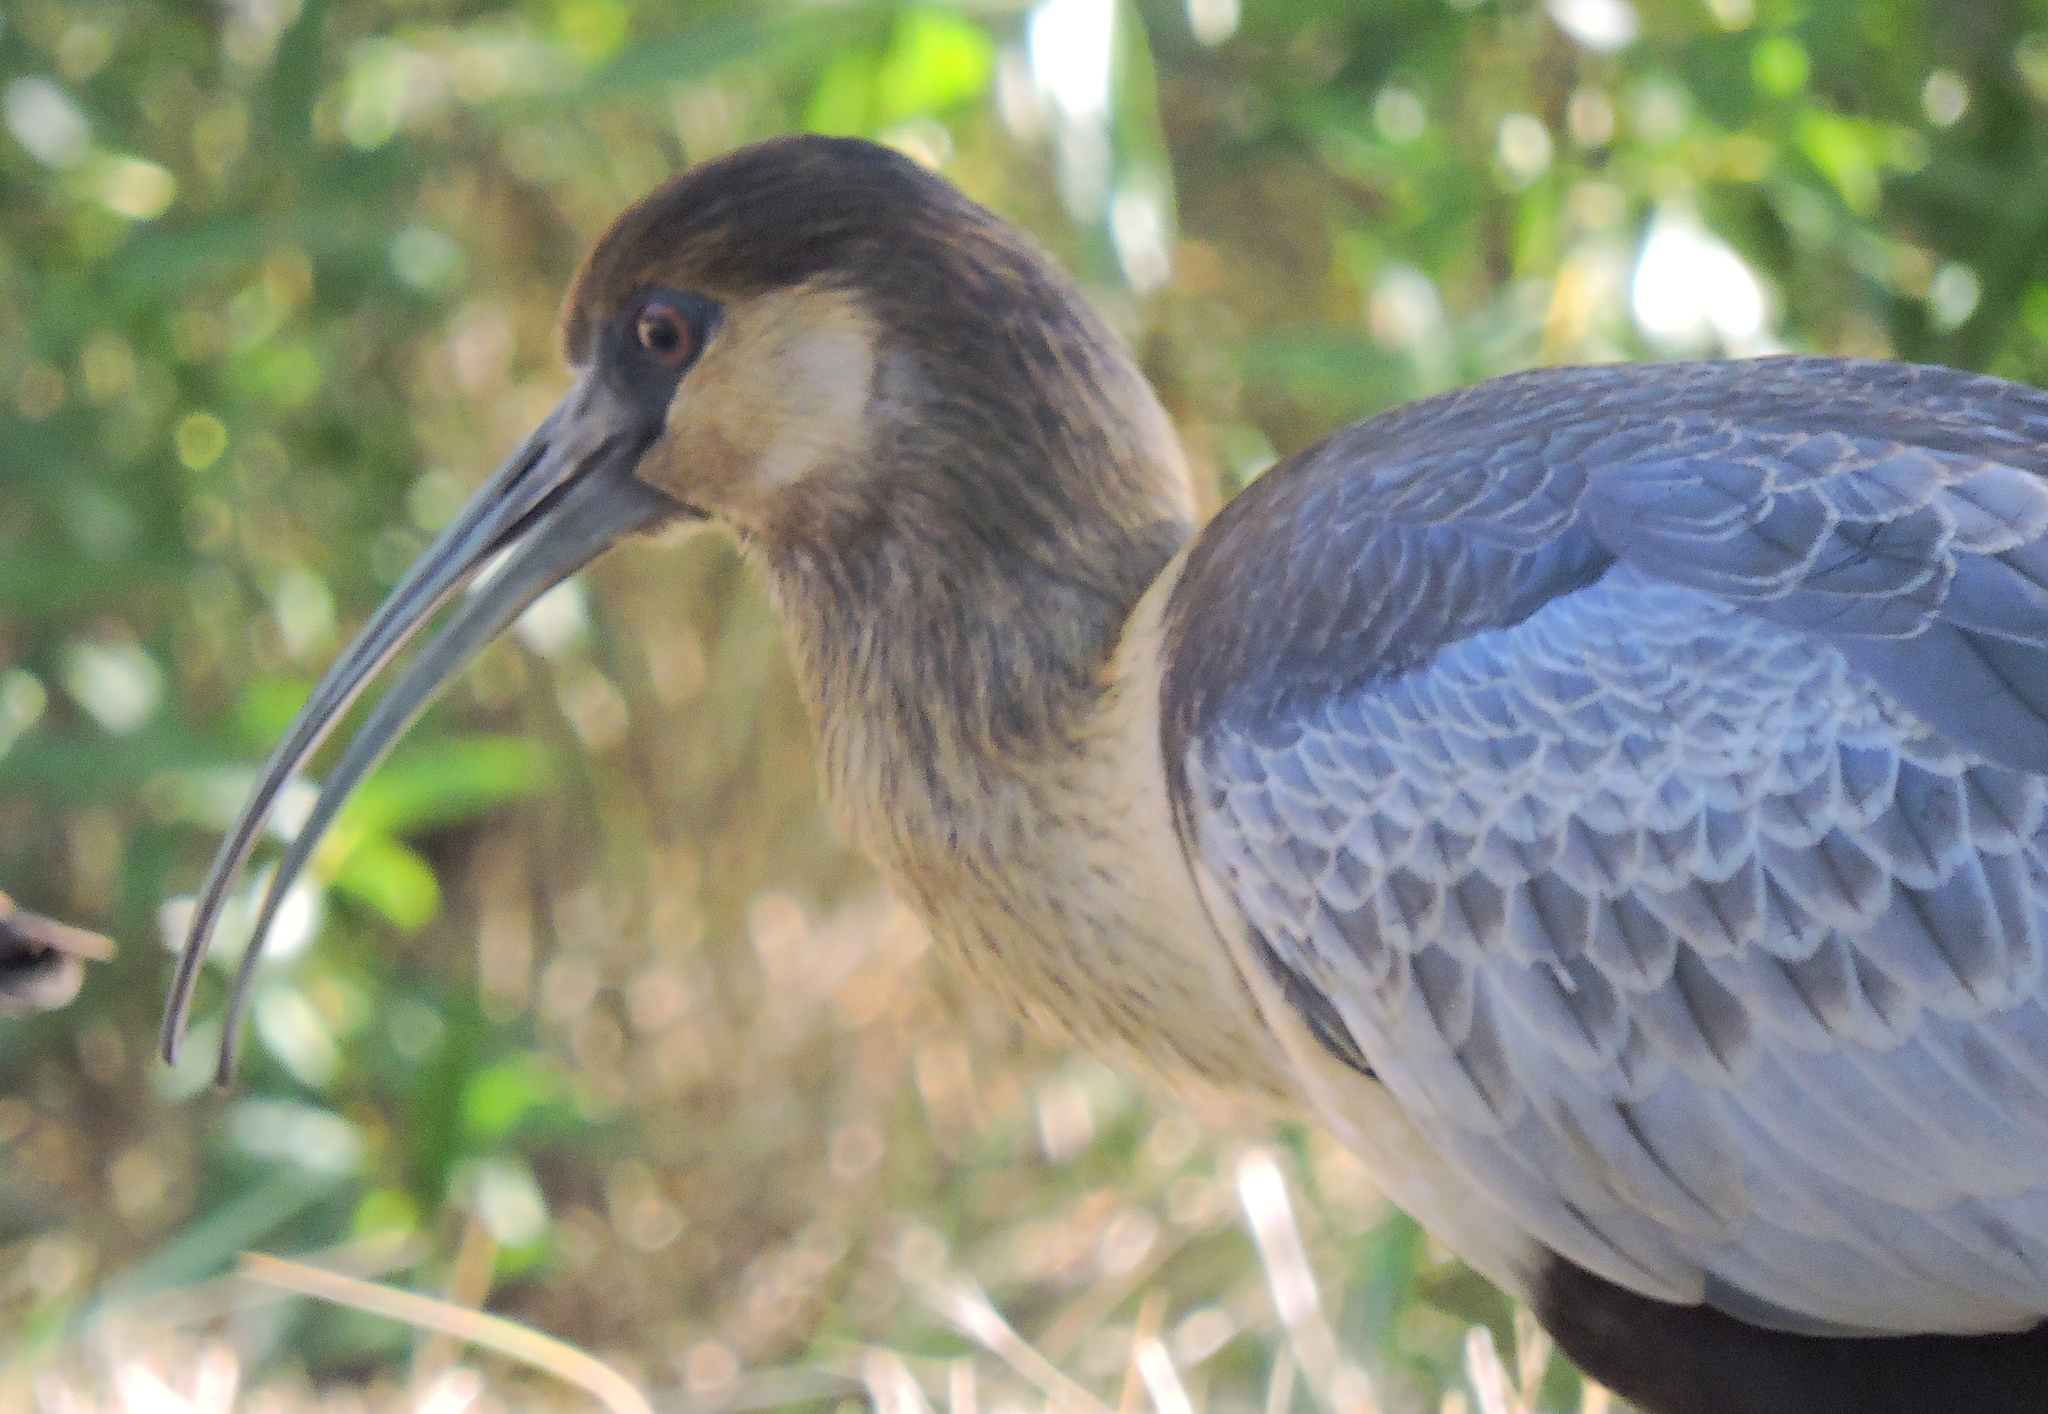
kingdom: Animalia
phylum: Chordata
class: Aves
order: Pelecaniformes
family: Threskiornithidae
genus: Theristicus
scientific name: Theristicus melanopis
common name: Black-faced ibis
